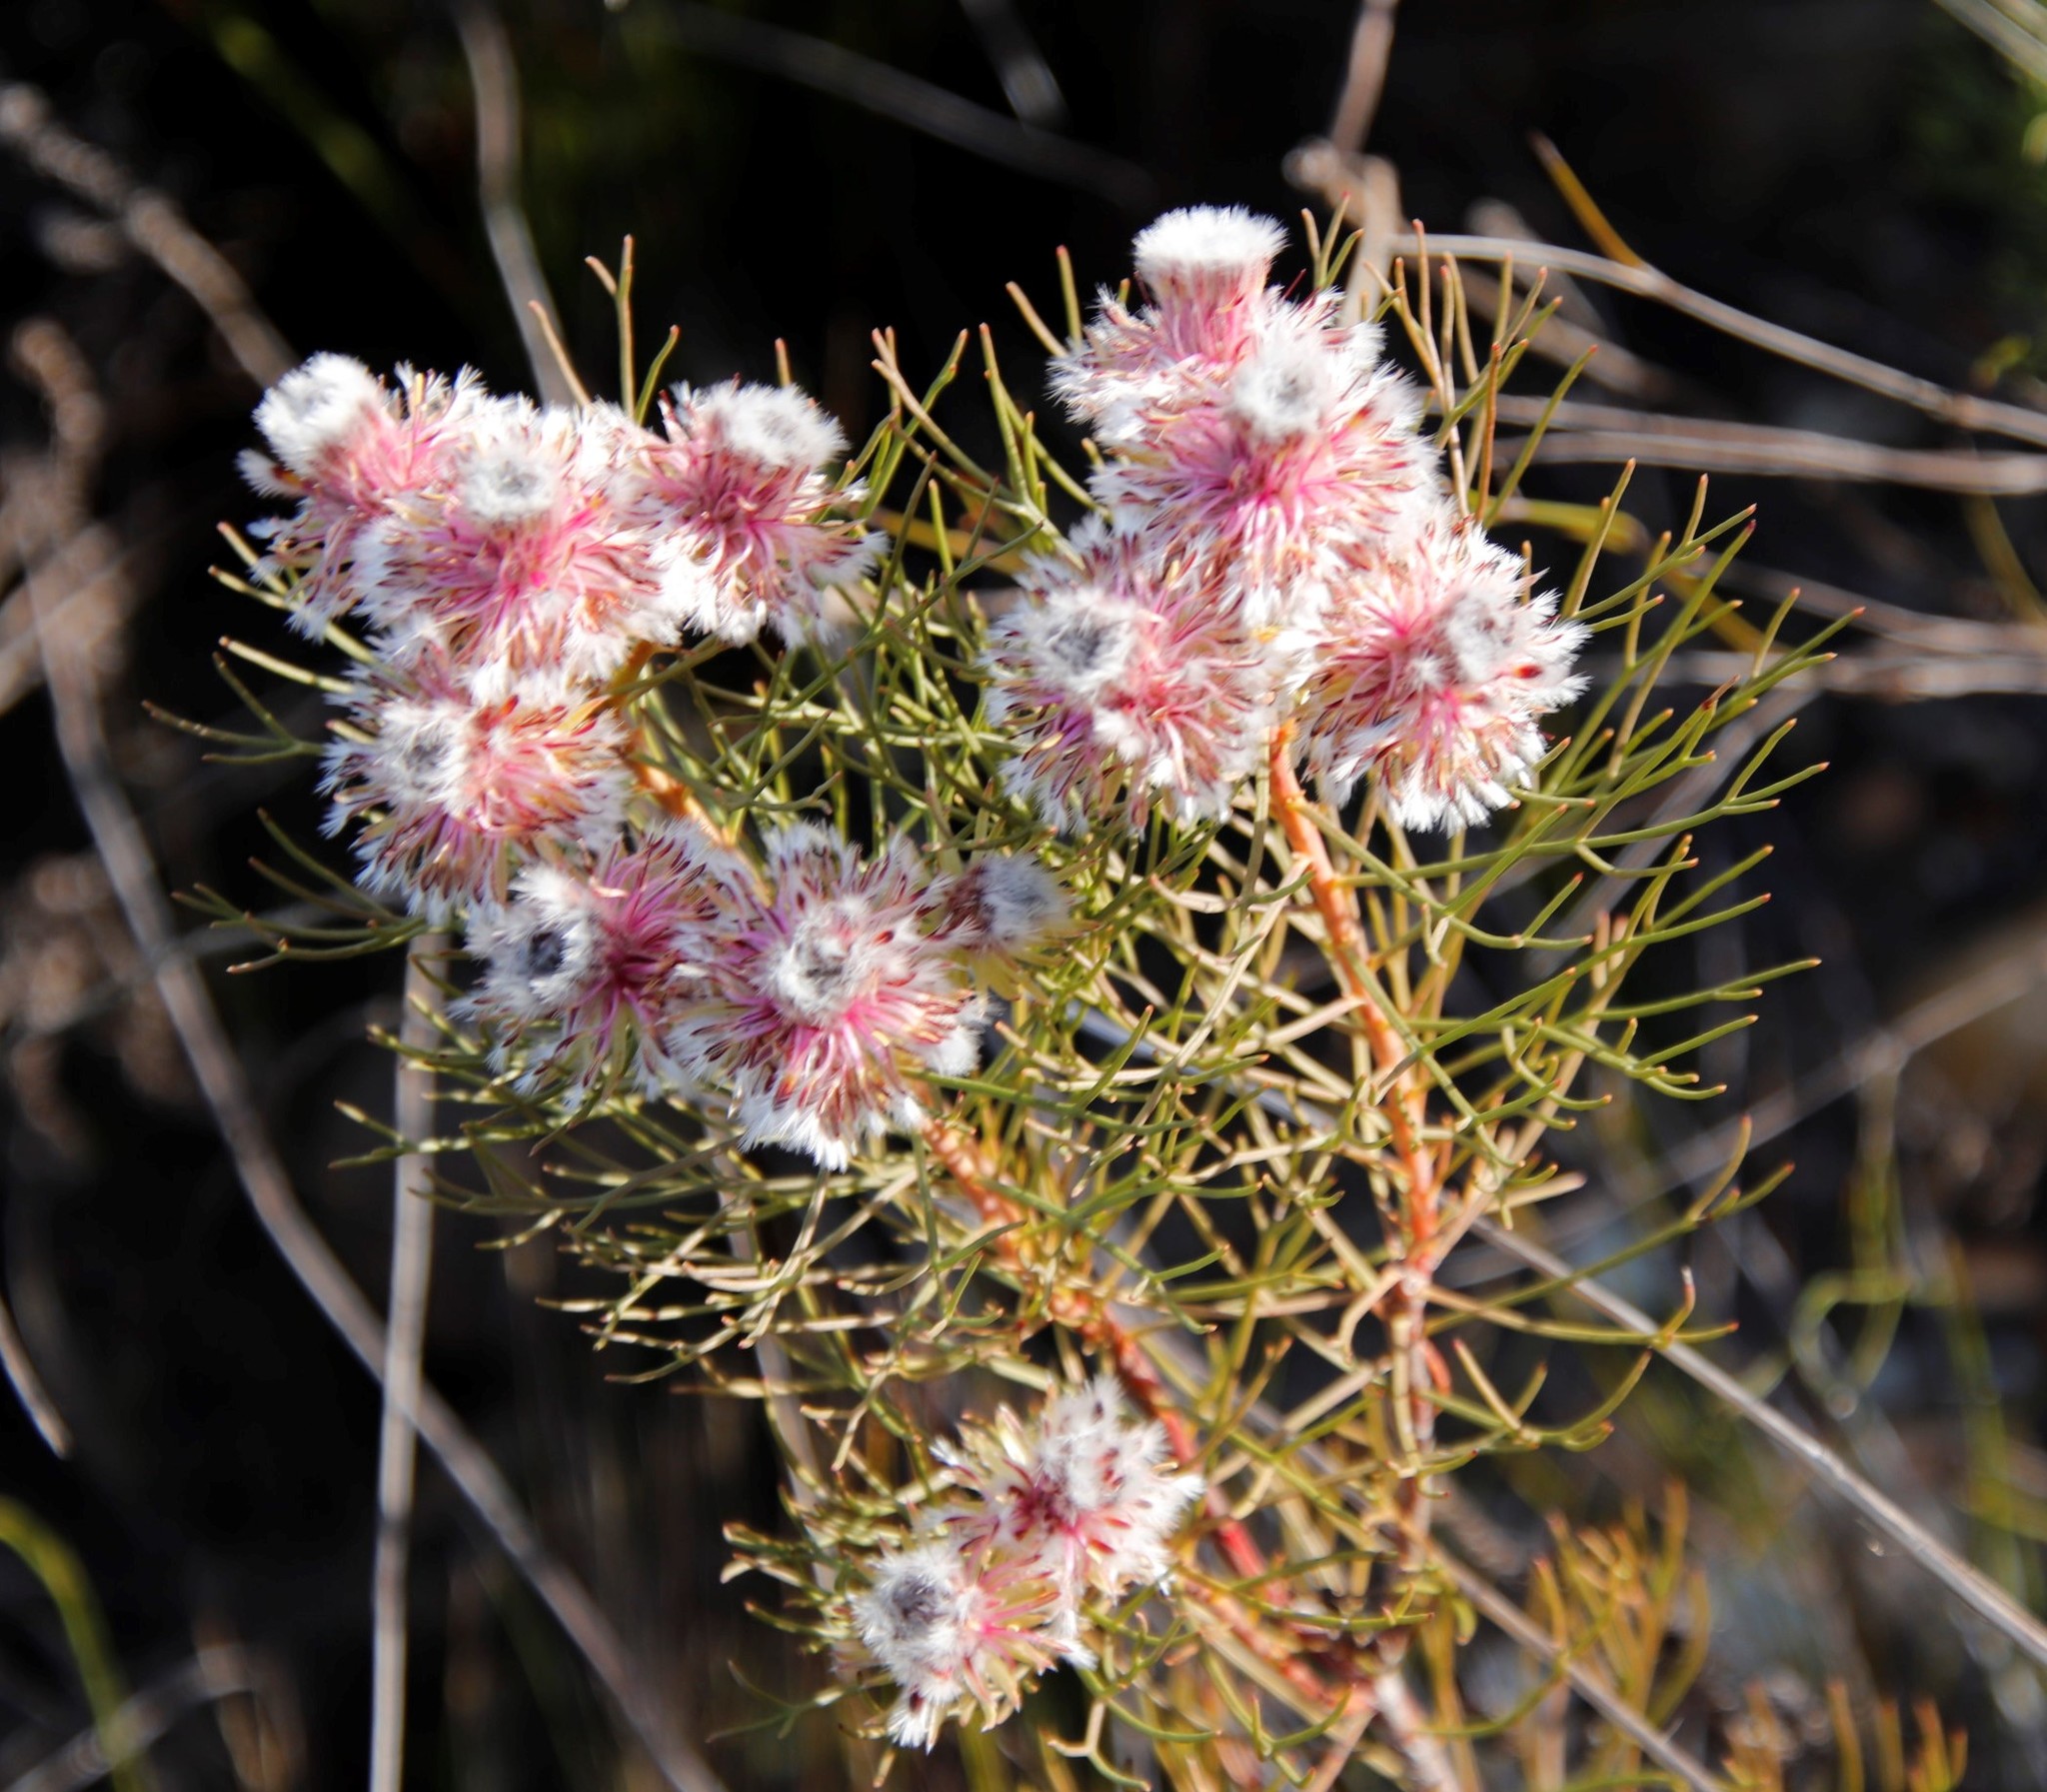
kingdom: Plantae
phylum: Tracheophyta
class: Magnoliopsida
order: Proteales
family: Proteaceae
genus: Serruria
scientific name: Serruria phylicoides
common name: Bearded spiderhead
